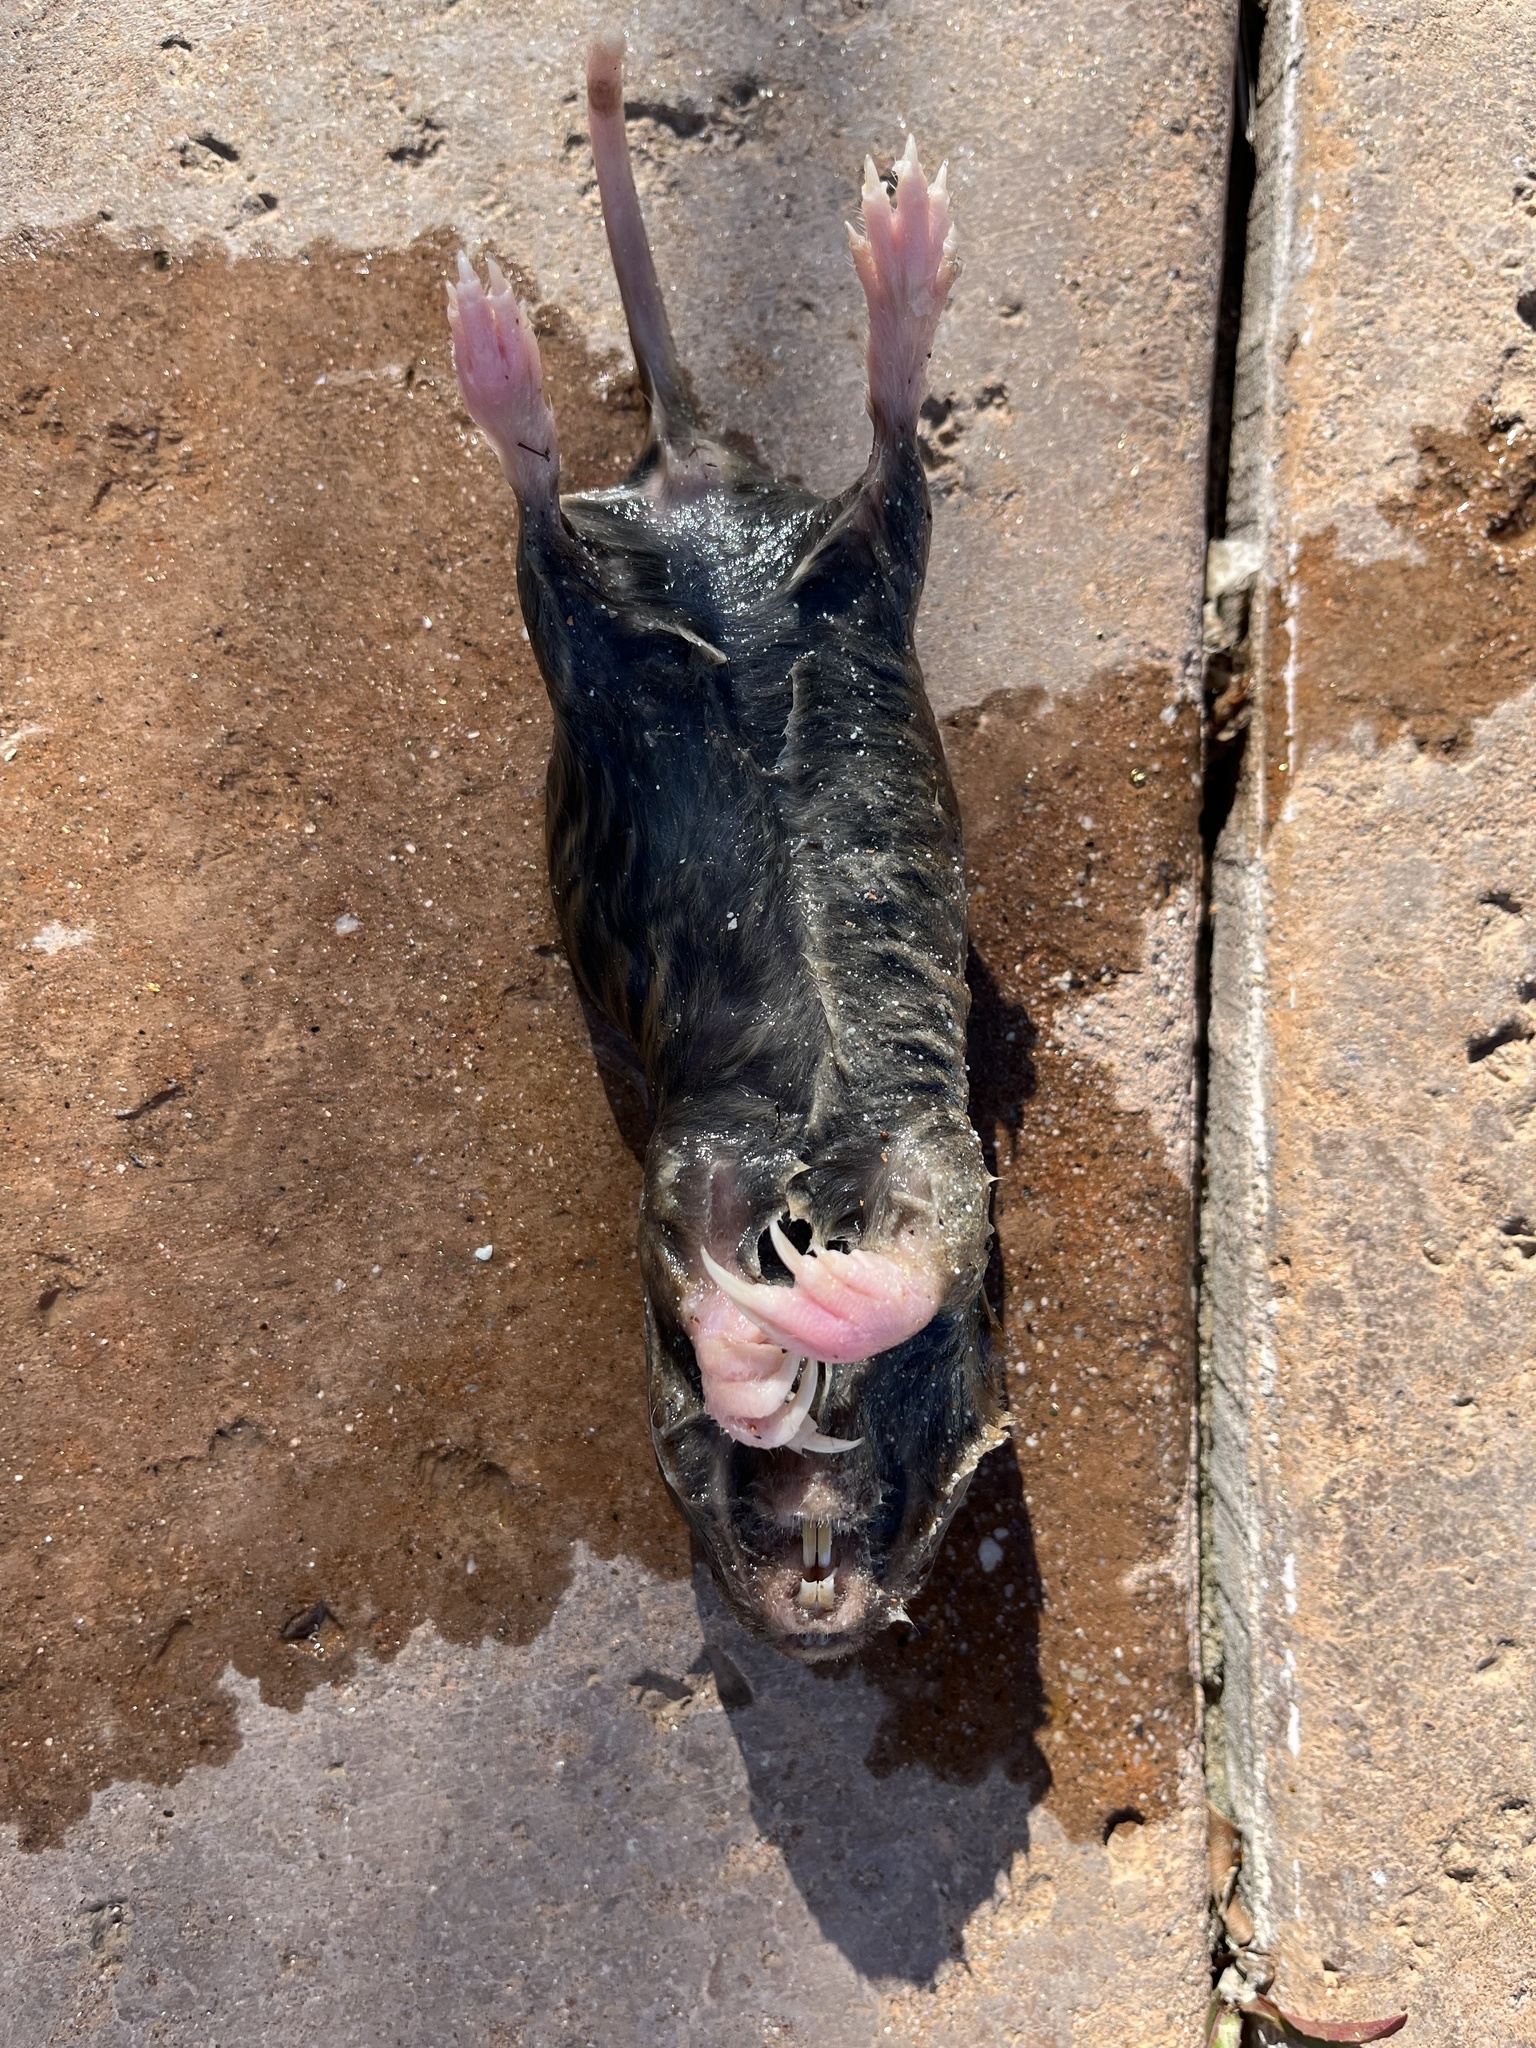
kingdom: Animalia
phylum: Chordata
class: Mammalia
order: Rodentia
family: Geomyidae
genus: Thomomys
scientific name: Thomomys bottae
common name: Botta's pocket gopher
